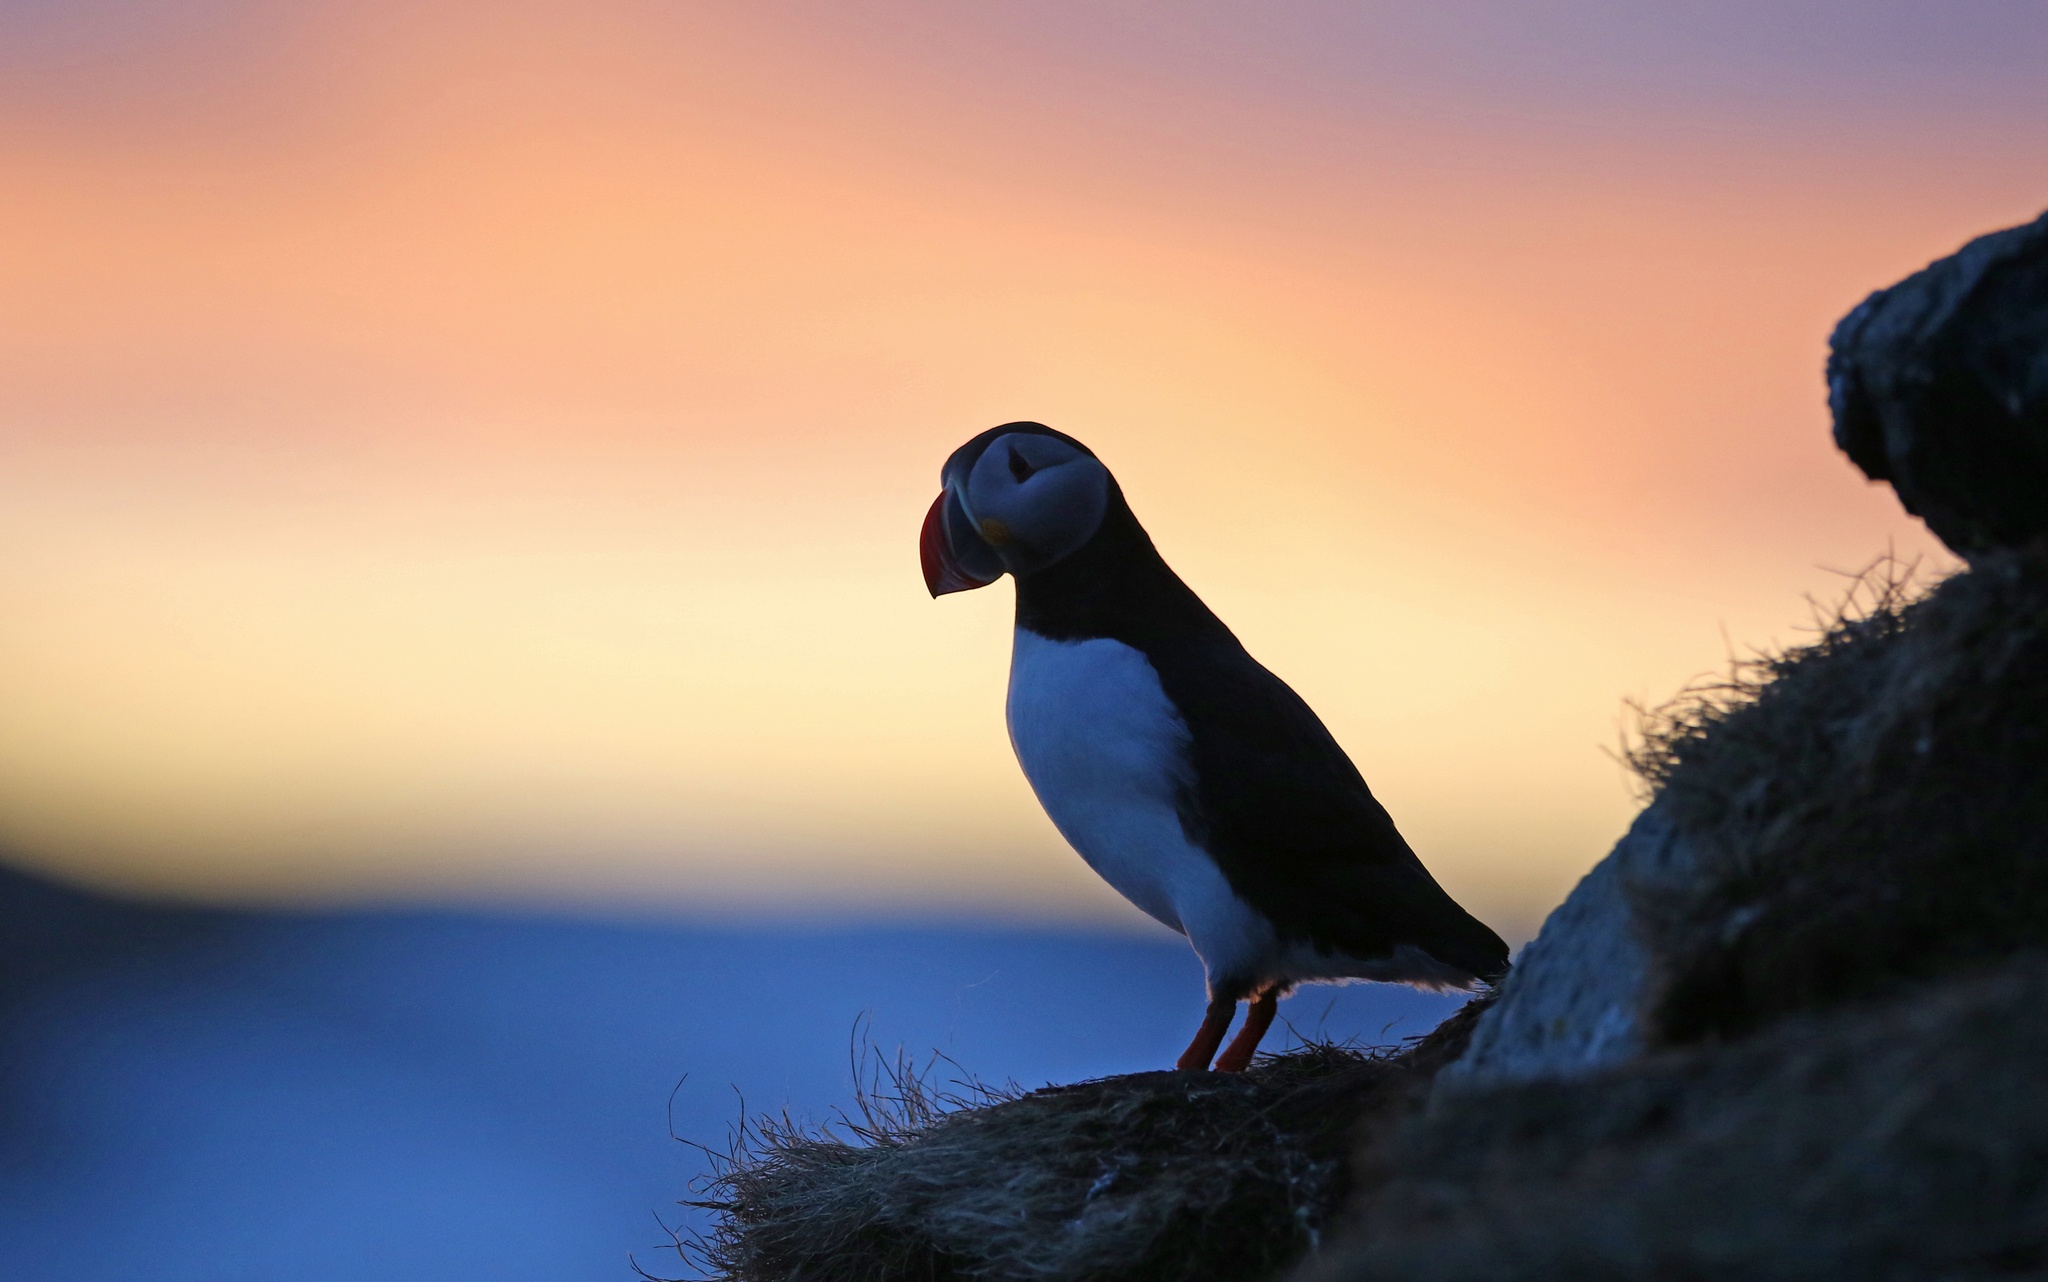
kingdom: Animalia
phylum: Chordata
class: Aves
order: Charadriiformes
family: Alcidae
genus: Fratercula
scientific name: Fratercula arctica
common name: Atlantic puffin
